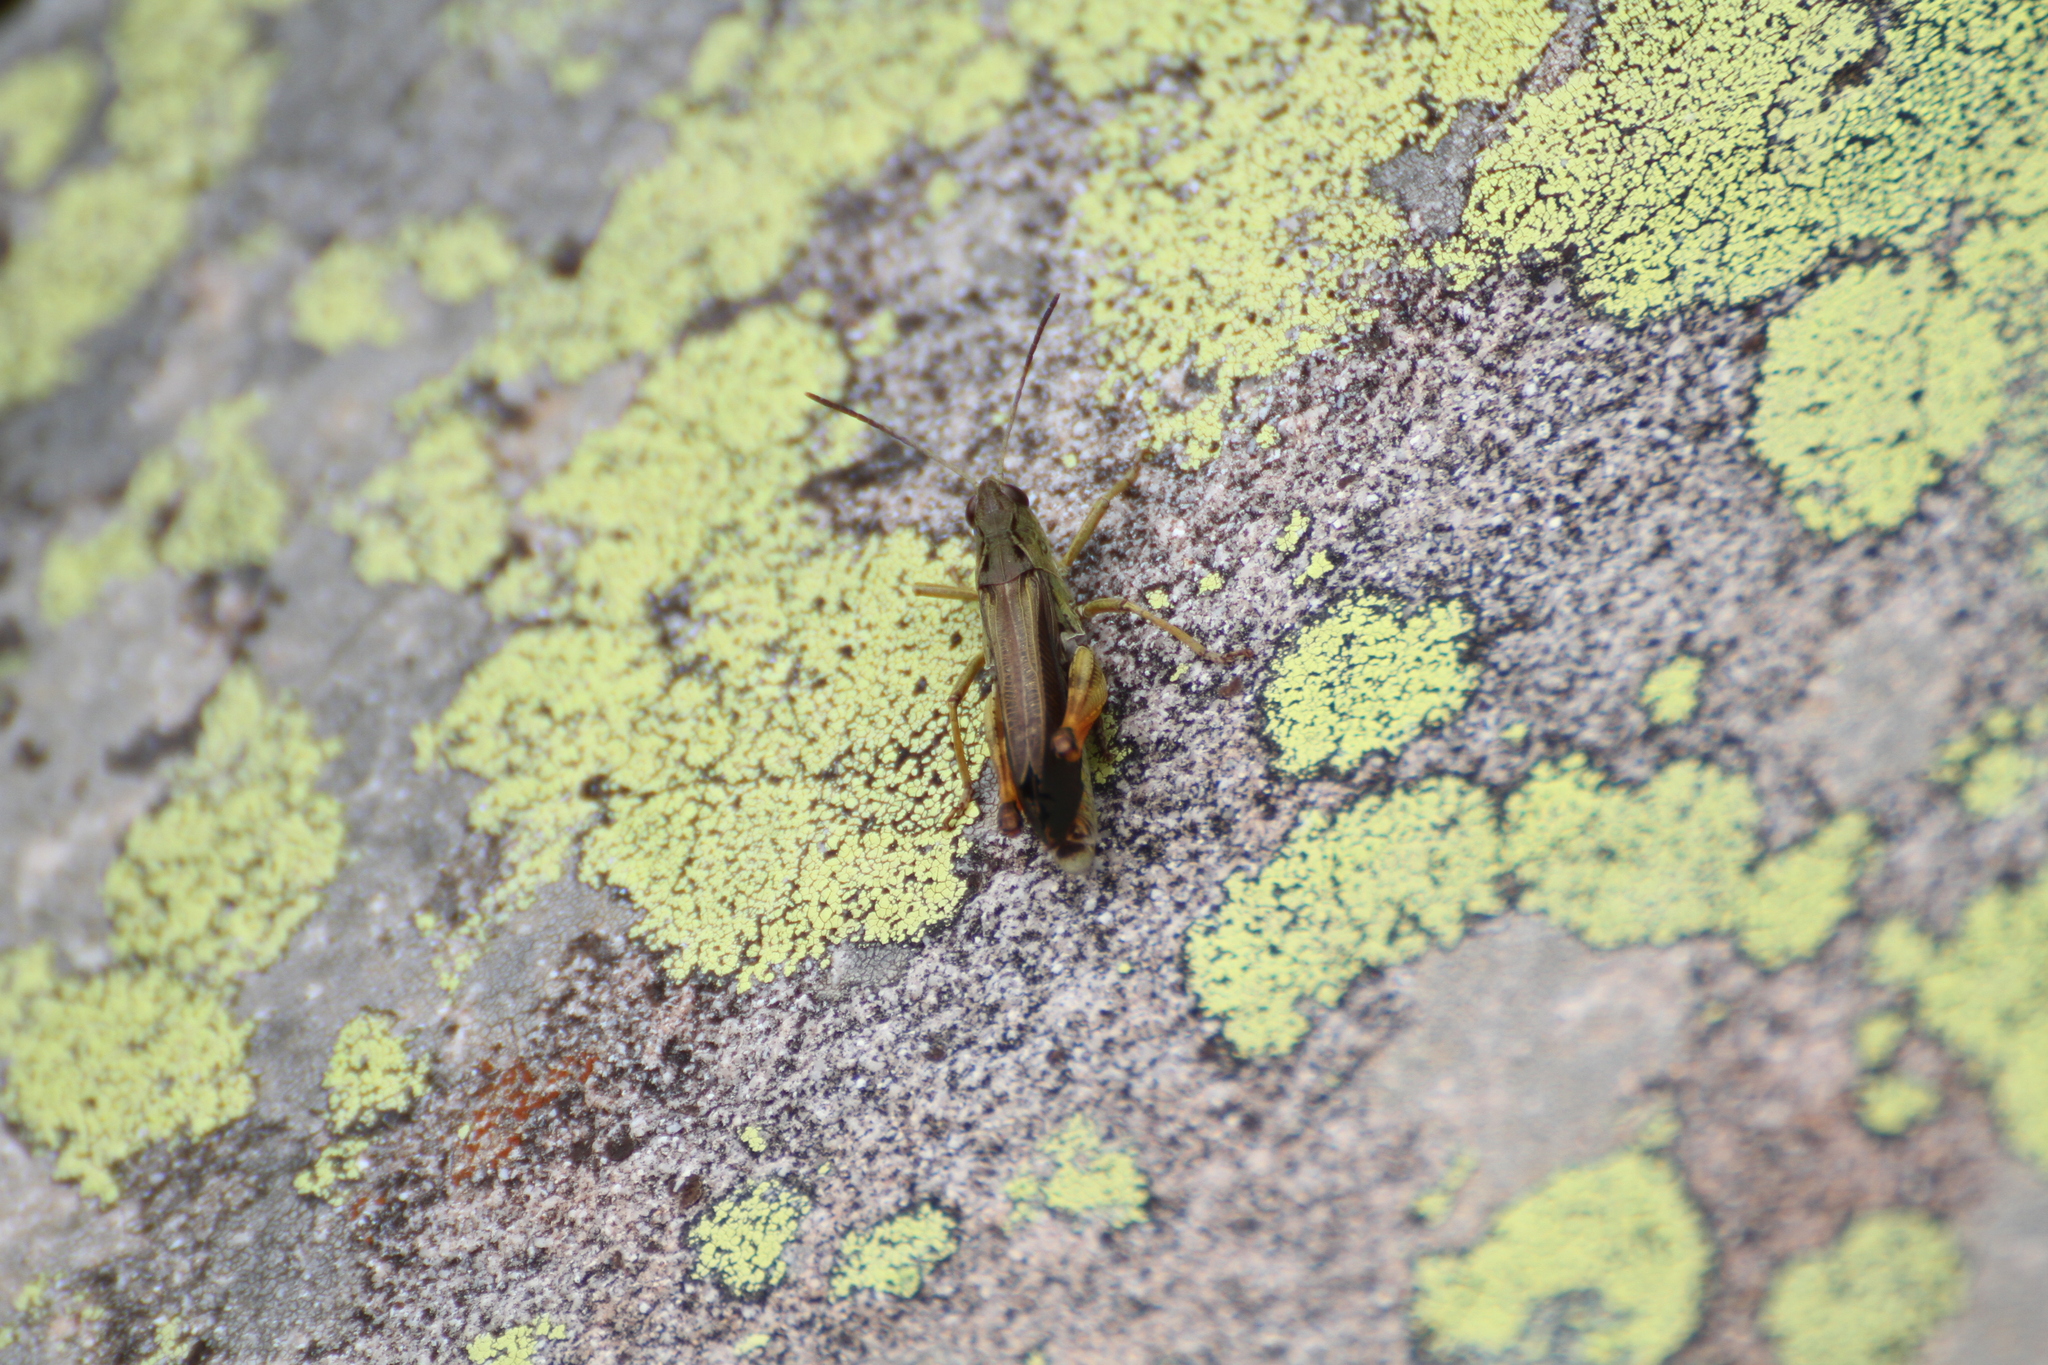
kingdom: Animalia
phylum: Arthropoda
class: Insecta
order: Orthoptera
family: Acrididae
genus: Stauroderus
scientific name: Stauroderus scalaris
